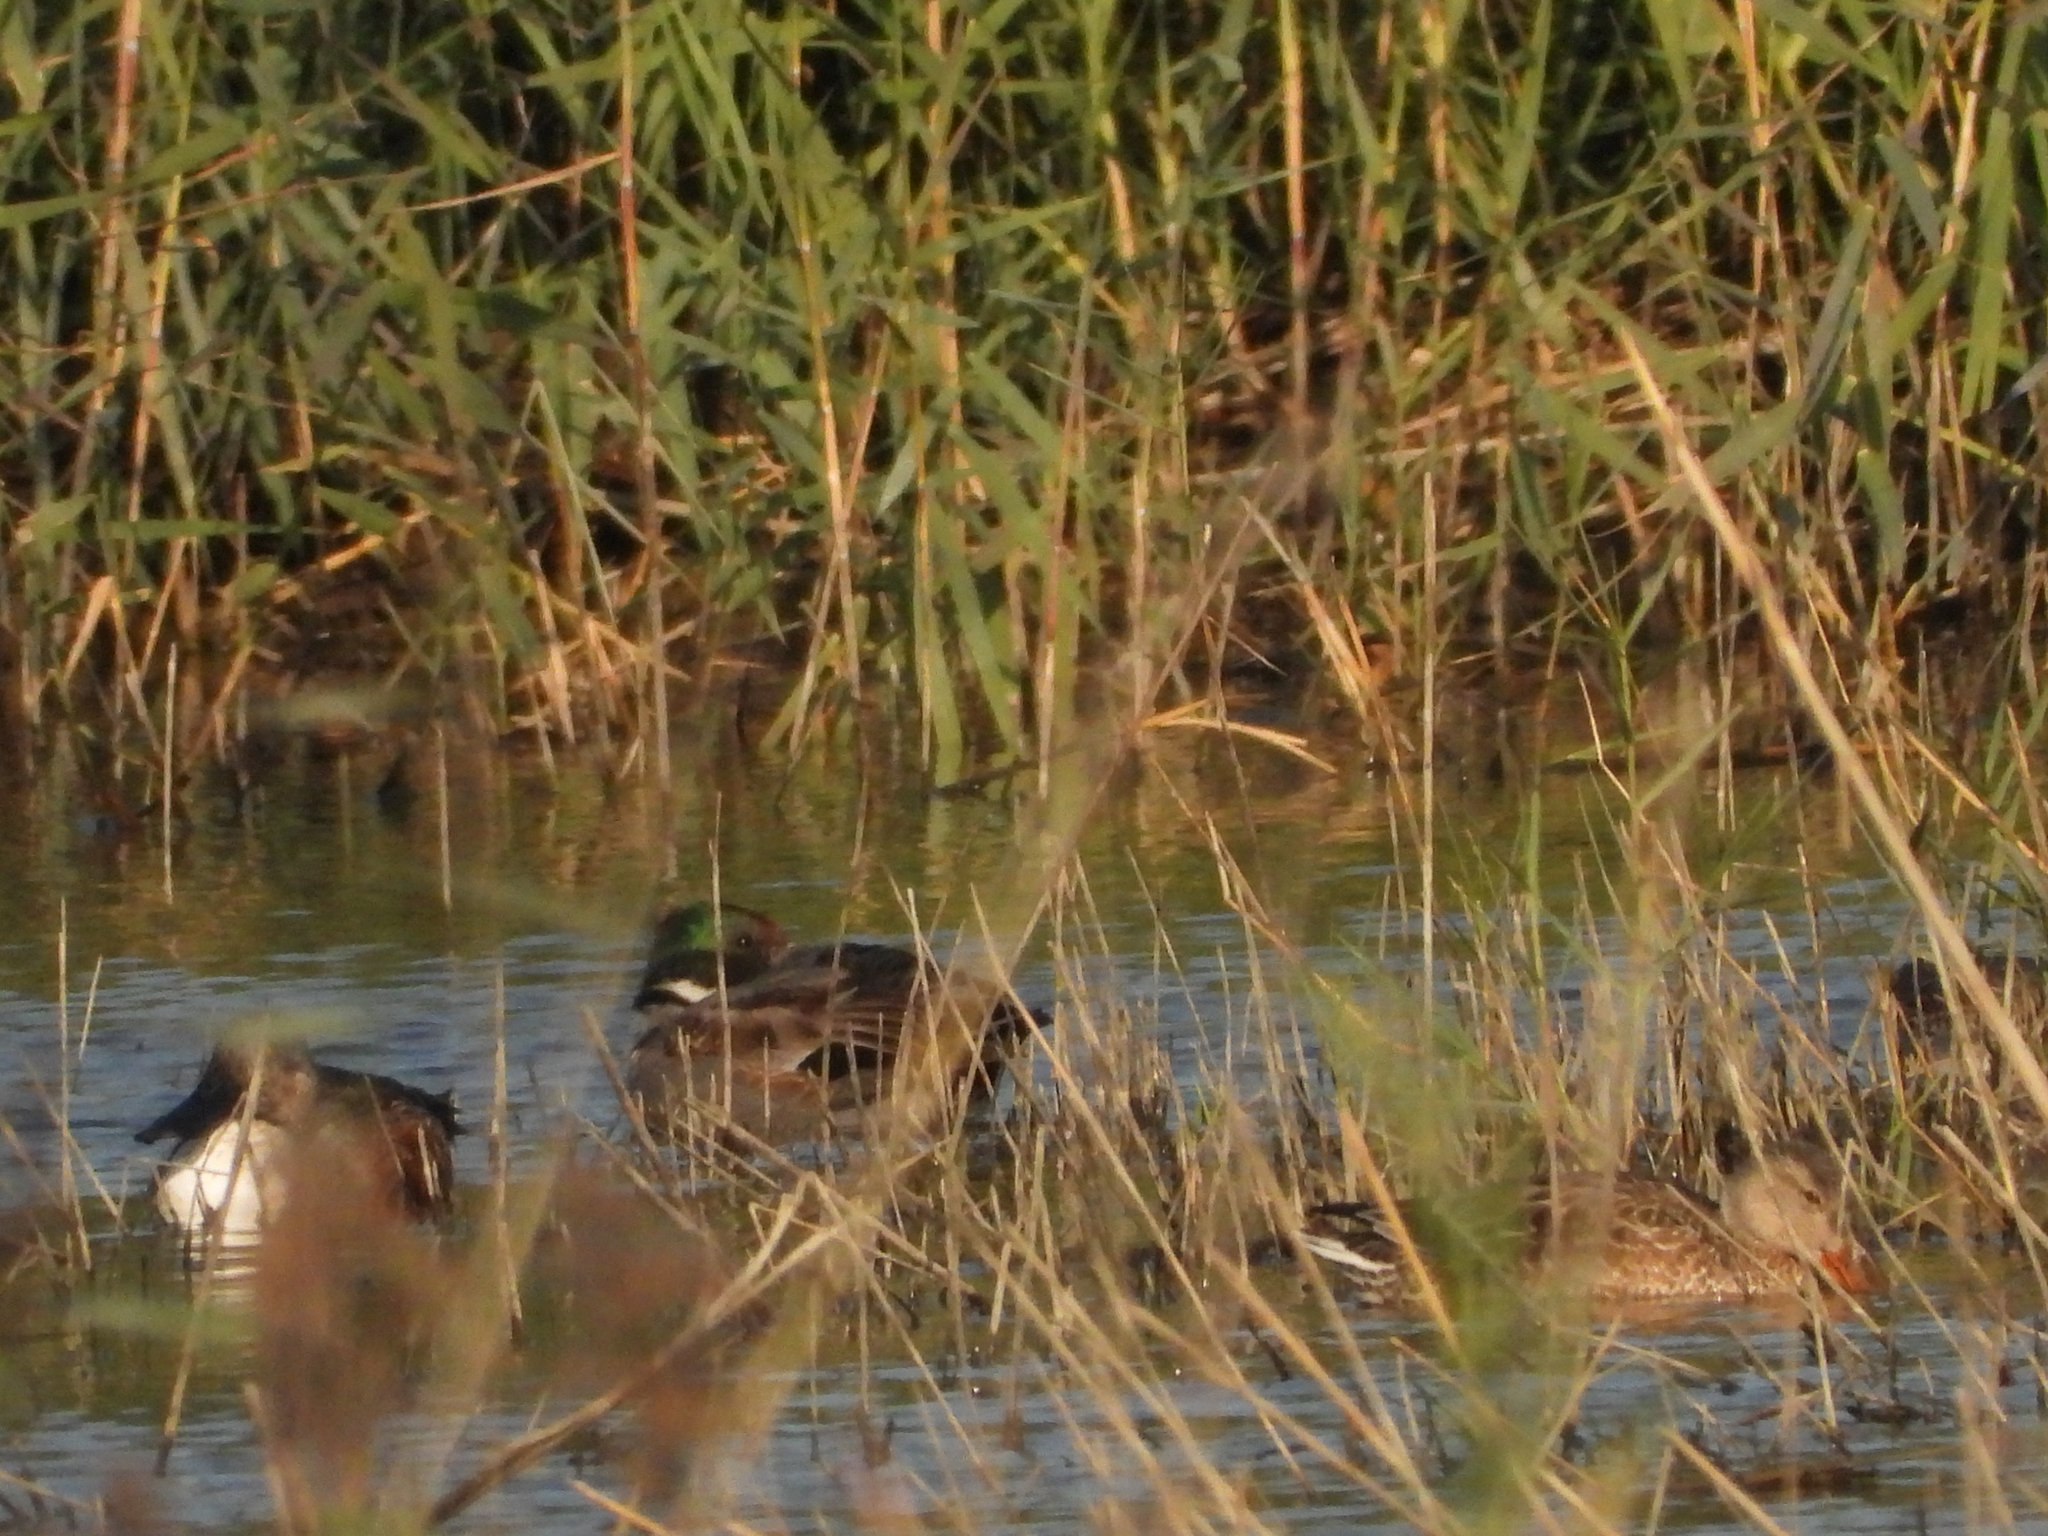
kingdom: Animalia
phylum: Chordata
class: Aves
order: Anseriformes
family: Anatidae
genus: Mareca
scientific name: Mareca falcata
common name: Falcated duck
